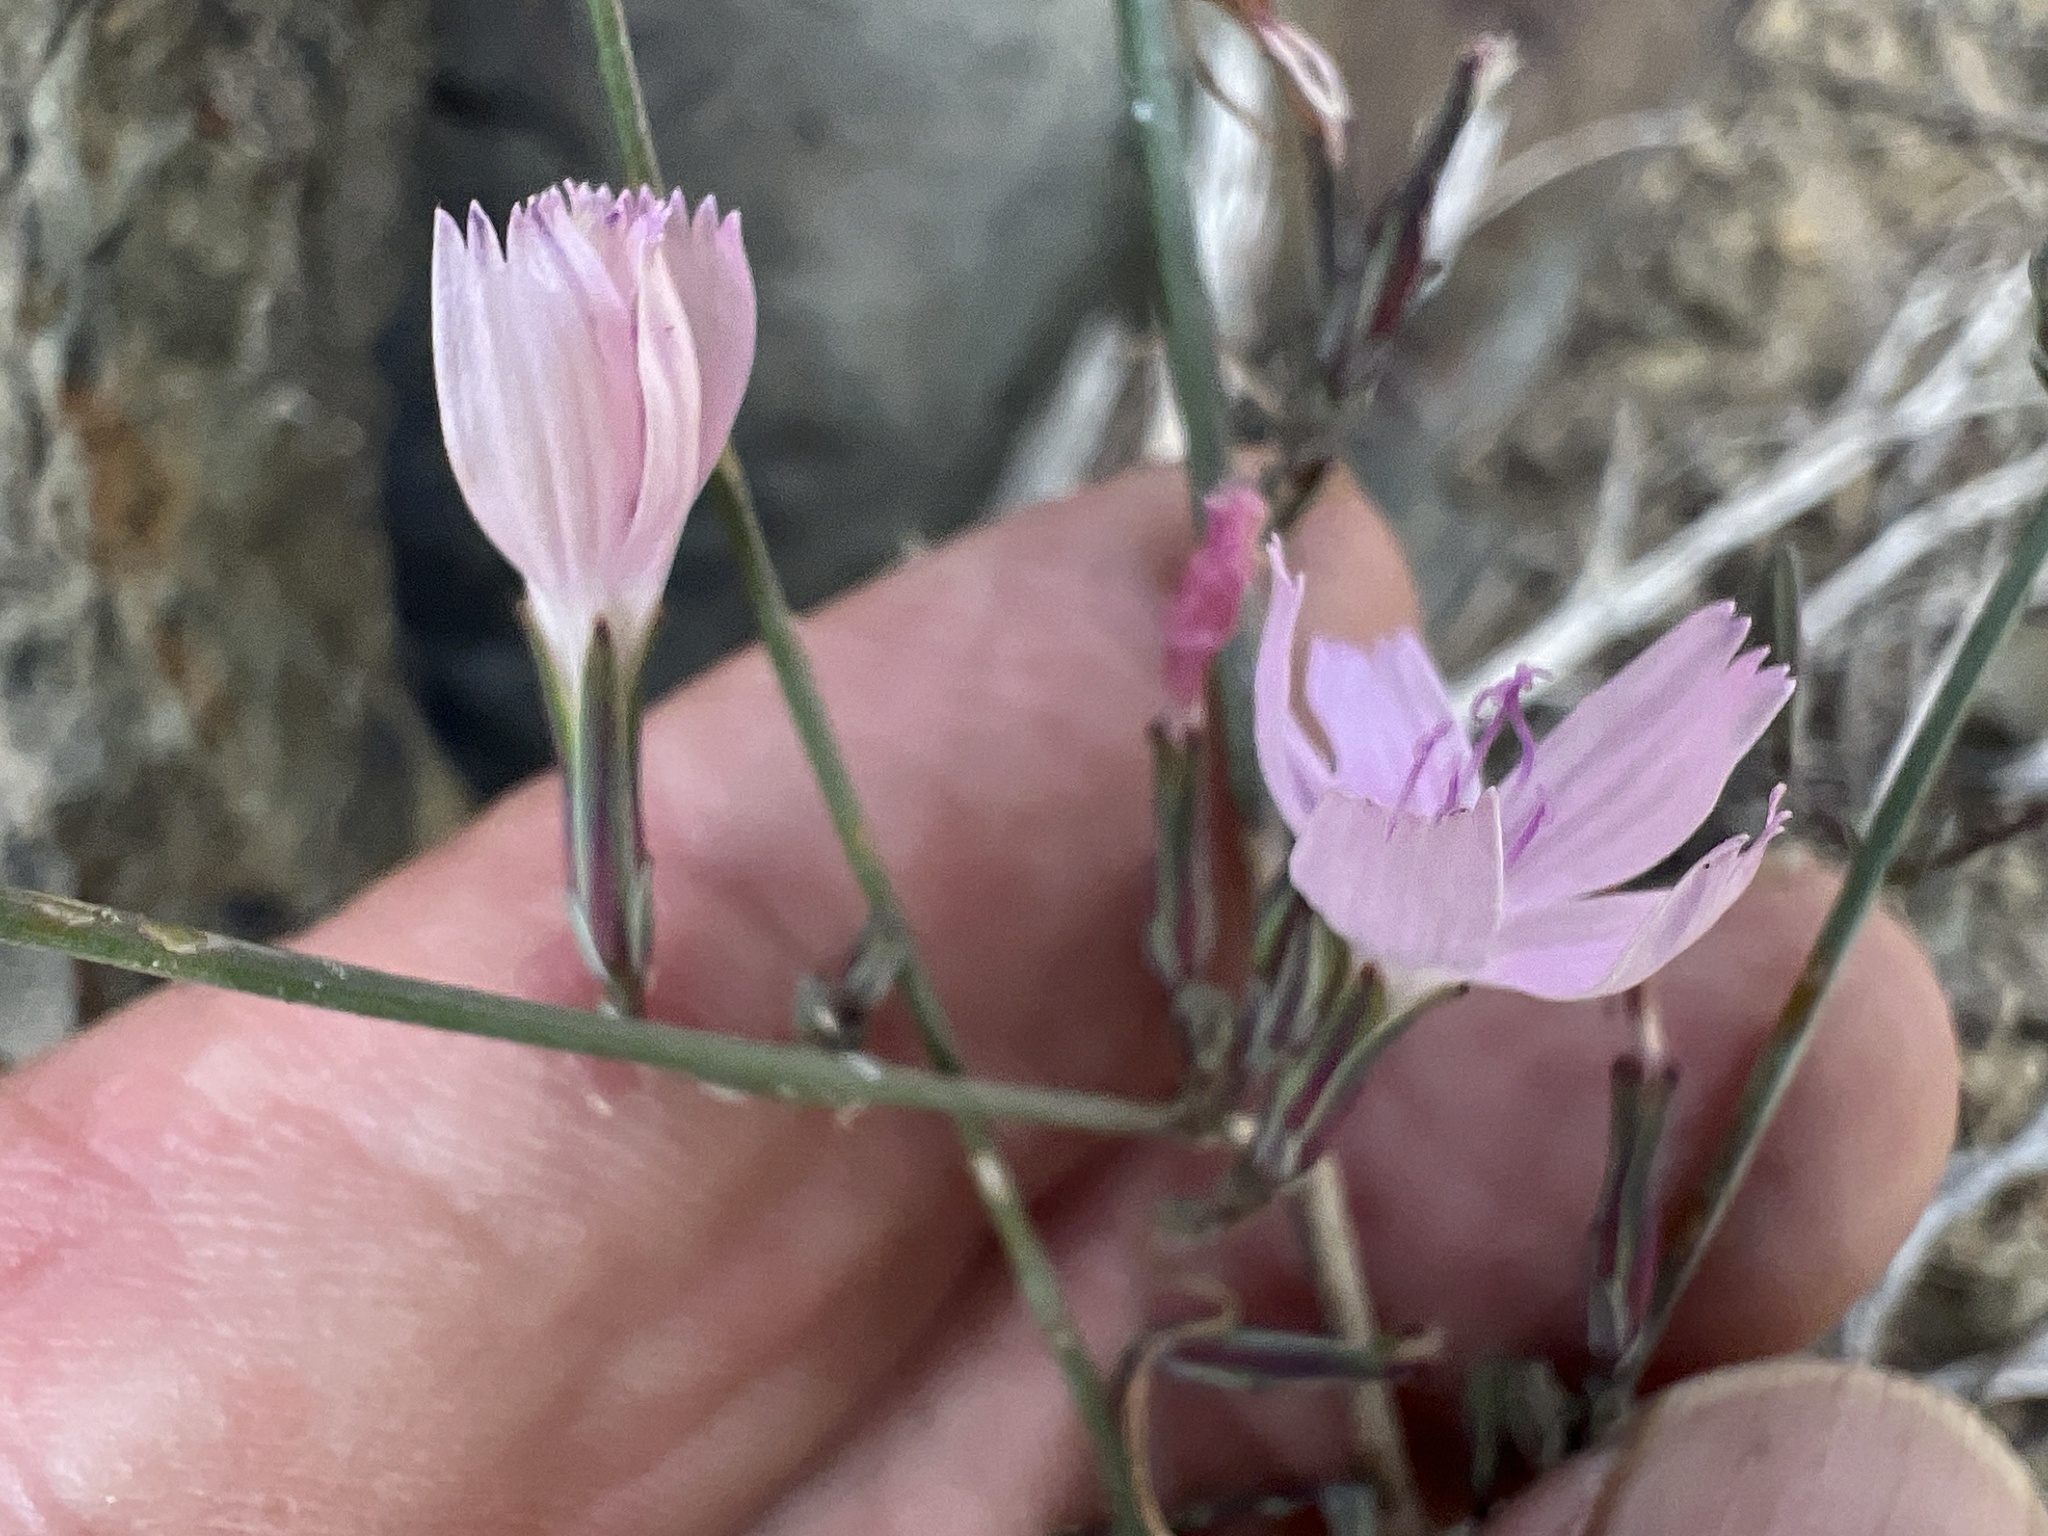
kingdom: Plantae
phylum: Tracheophyta
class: Magnoliopsida
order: Asterales
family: Asteraceae
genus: Stephanomeria
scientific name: Stephanomeria exigua
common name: Small wirelettuce
